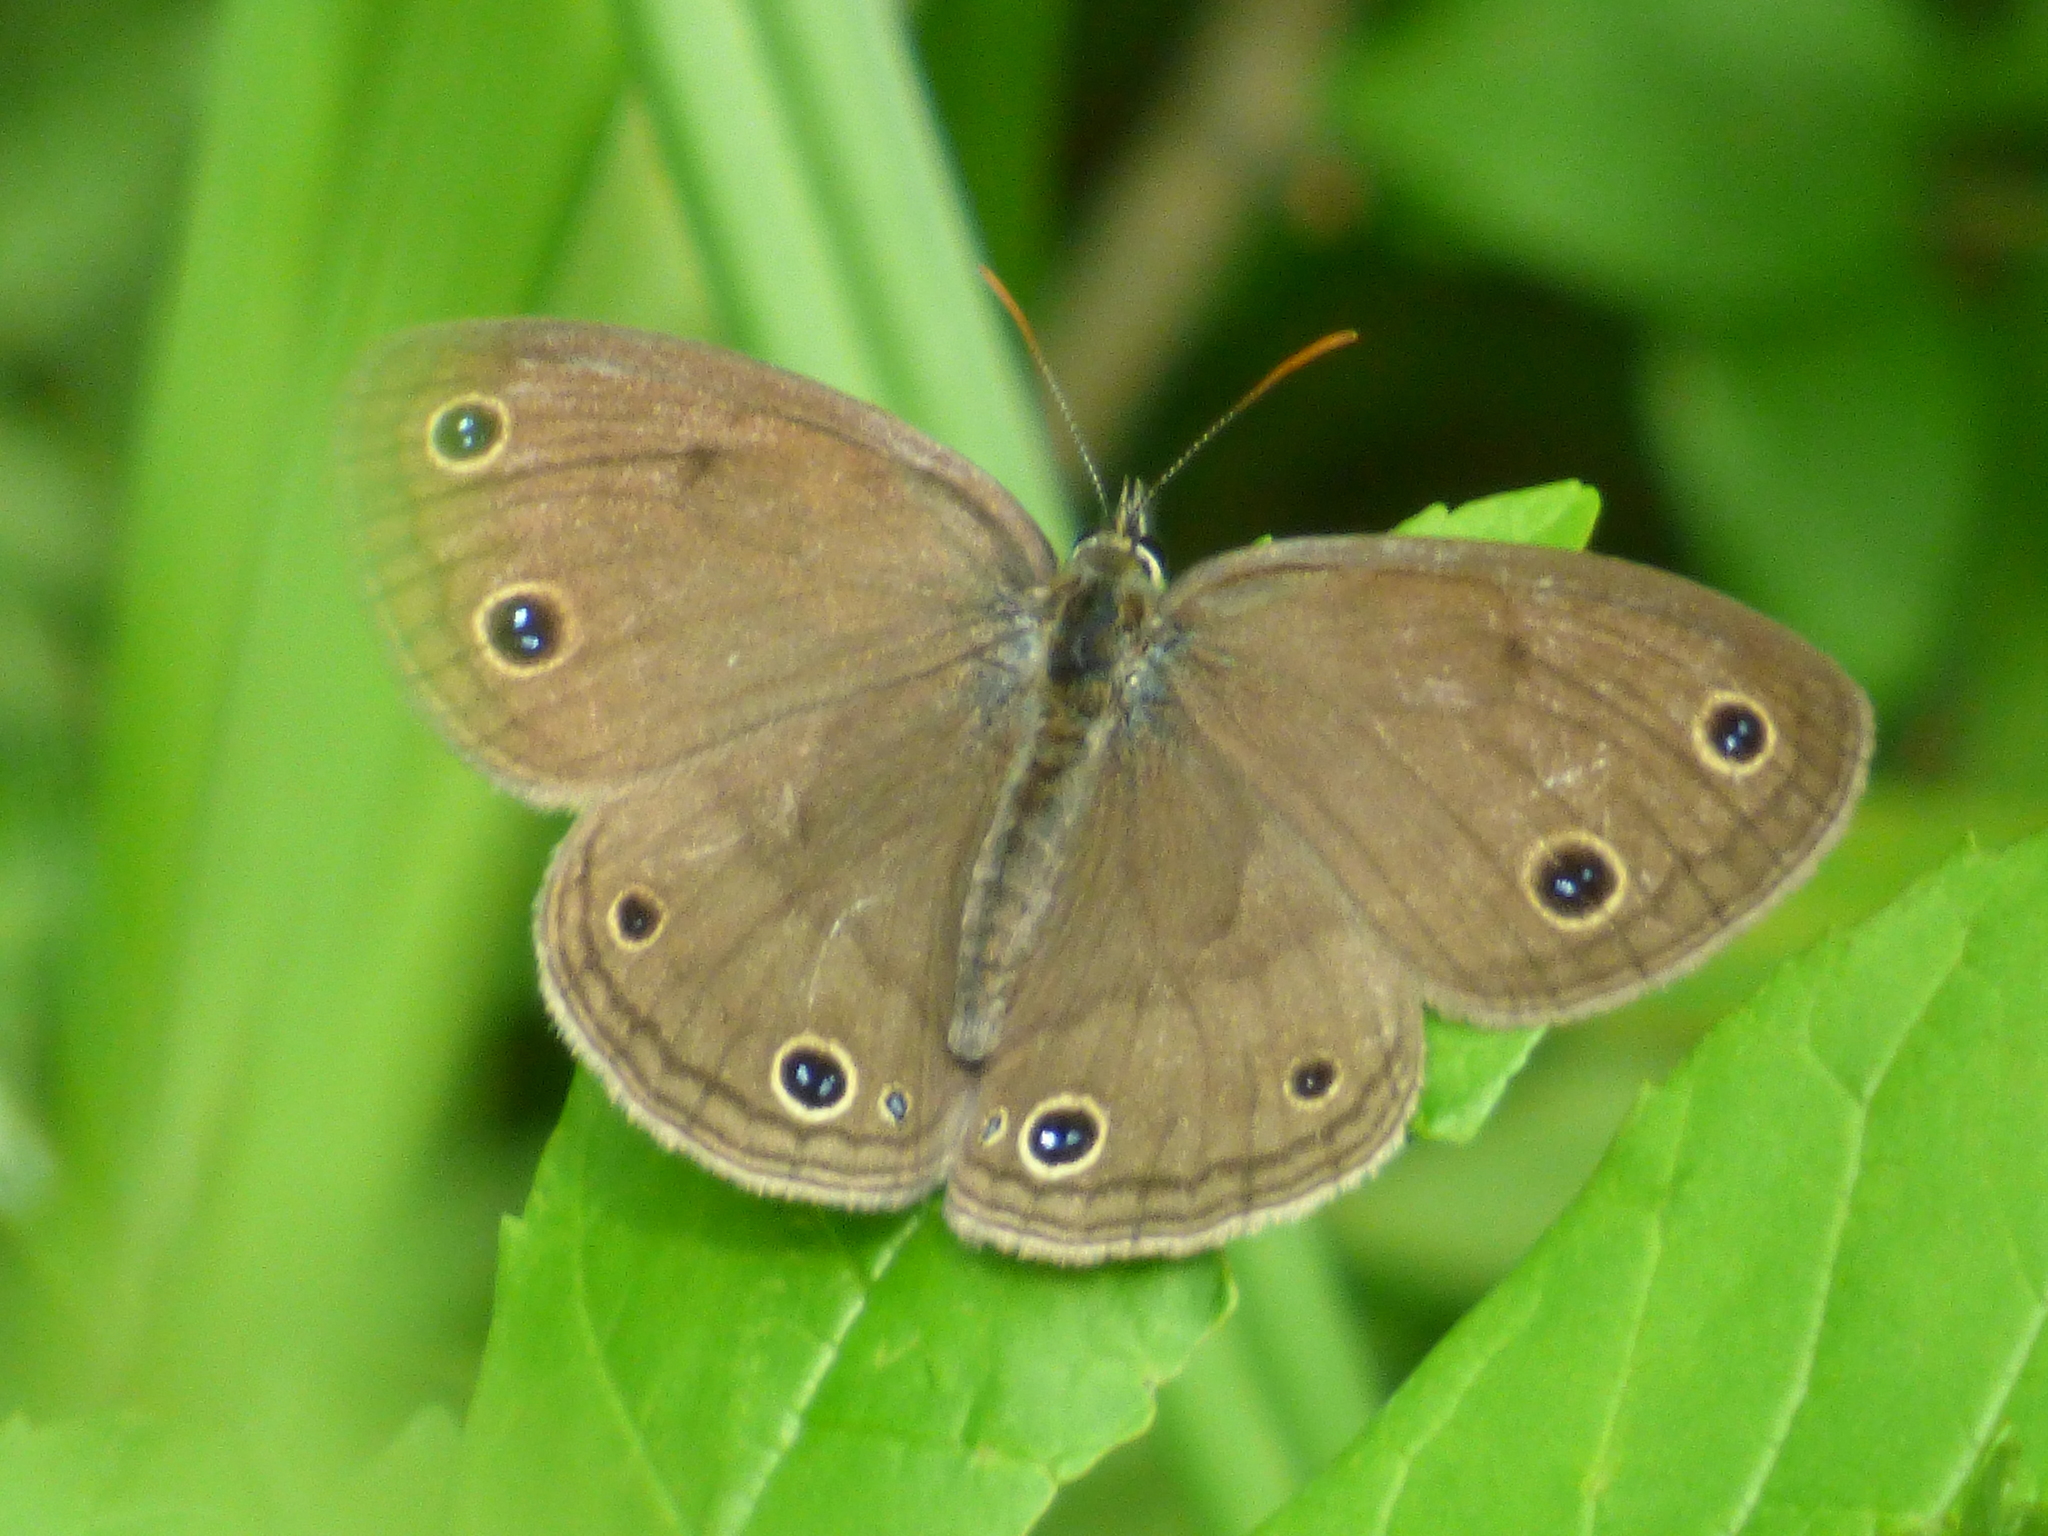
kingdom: Animalia
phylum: Arthropoda
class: Insecta
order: Lepidoptera
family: Nymphalidae
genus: Euptychia
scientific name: Euptychia cymela
